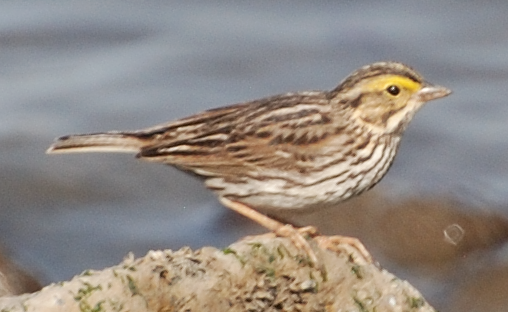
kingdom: Animalia
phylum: Chordata
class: Aves
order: Passeriformes
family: Passerellidae
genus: Passerculus
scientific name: Passerculus sandwichensis
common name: Savannah sparrow
